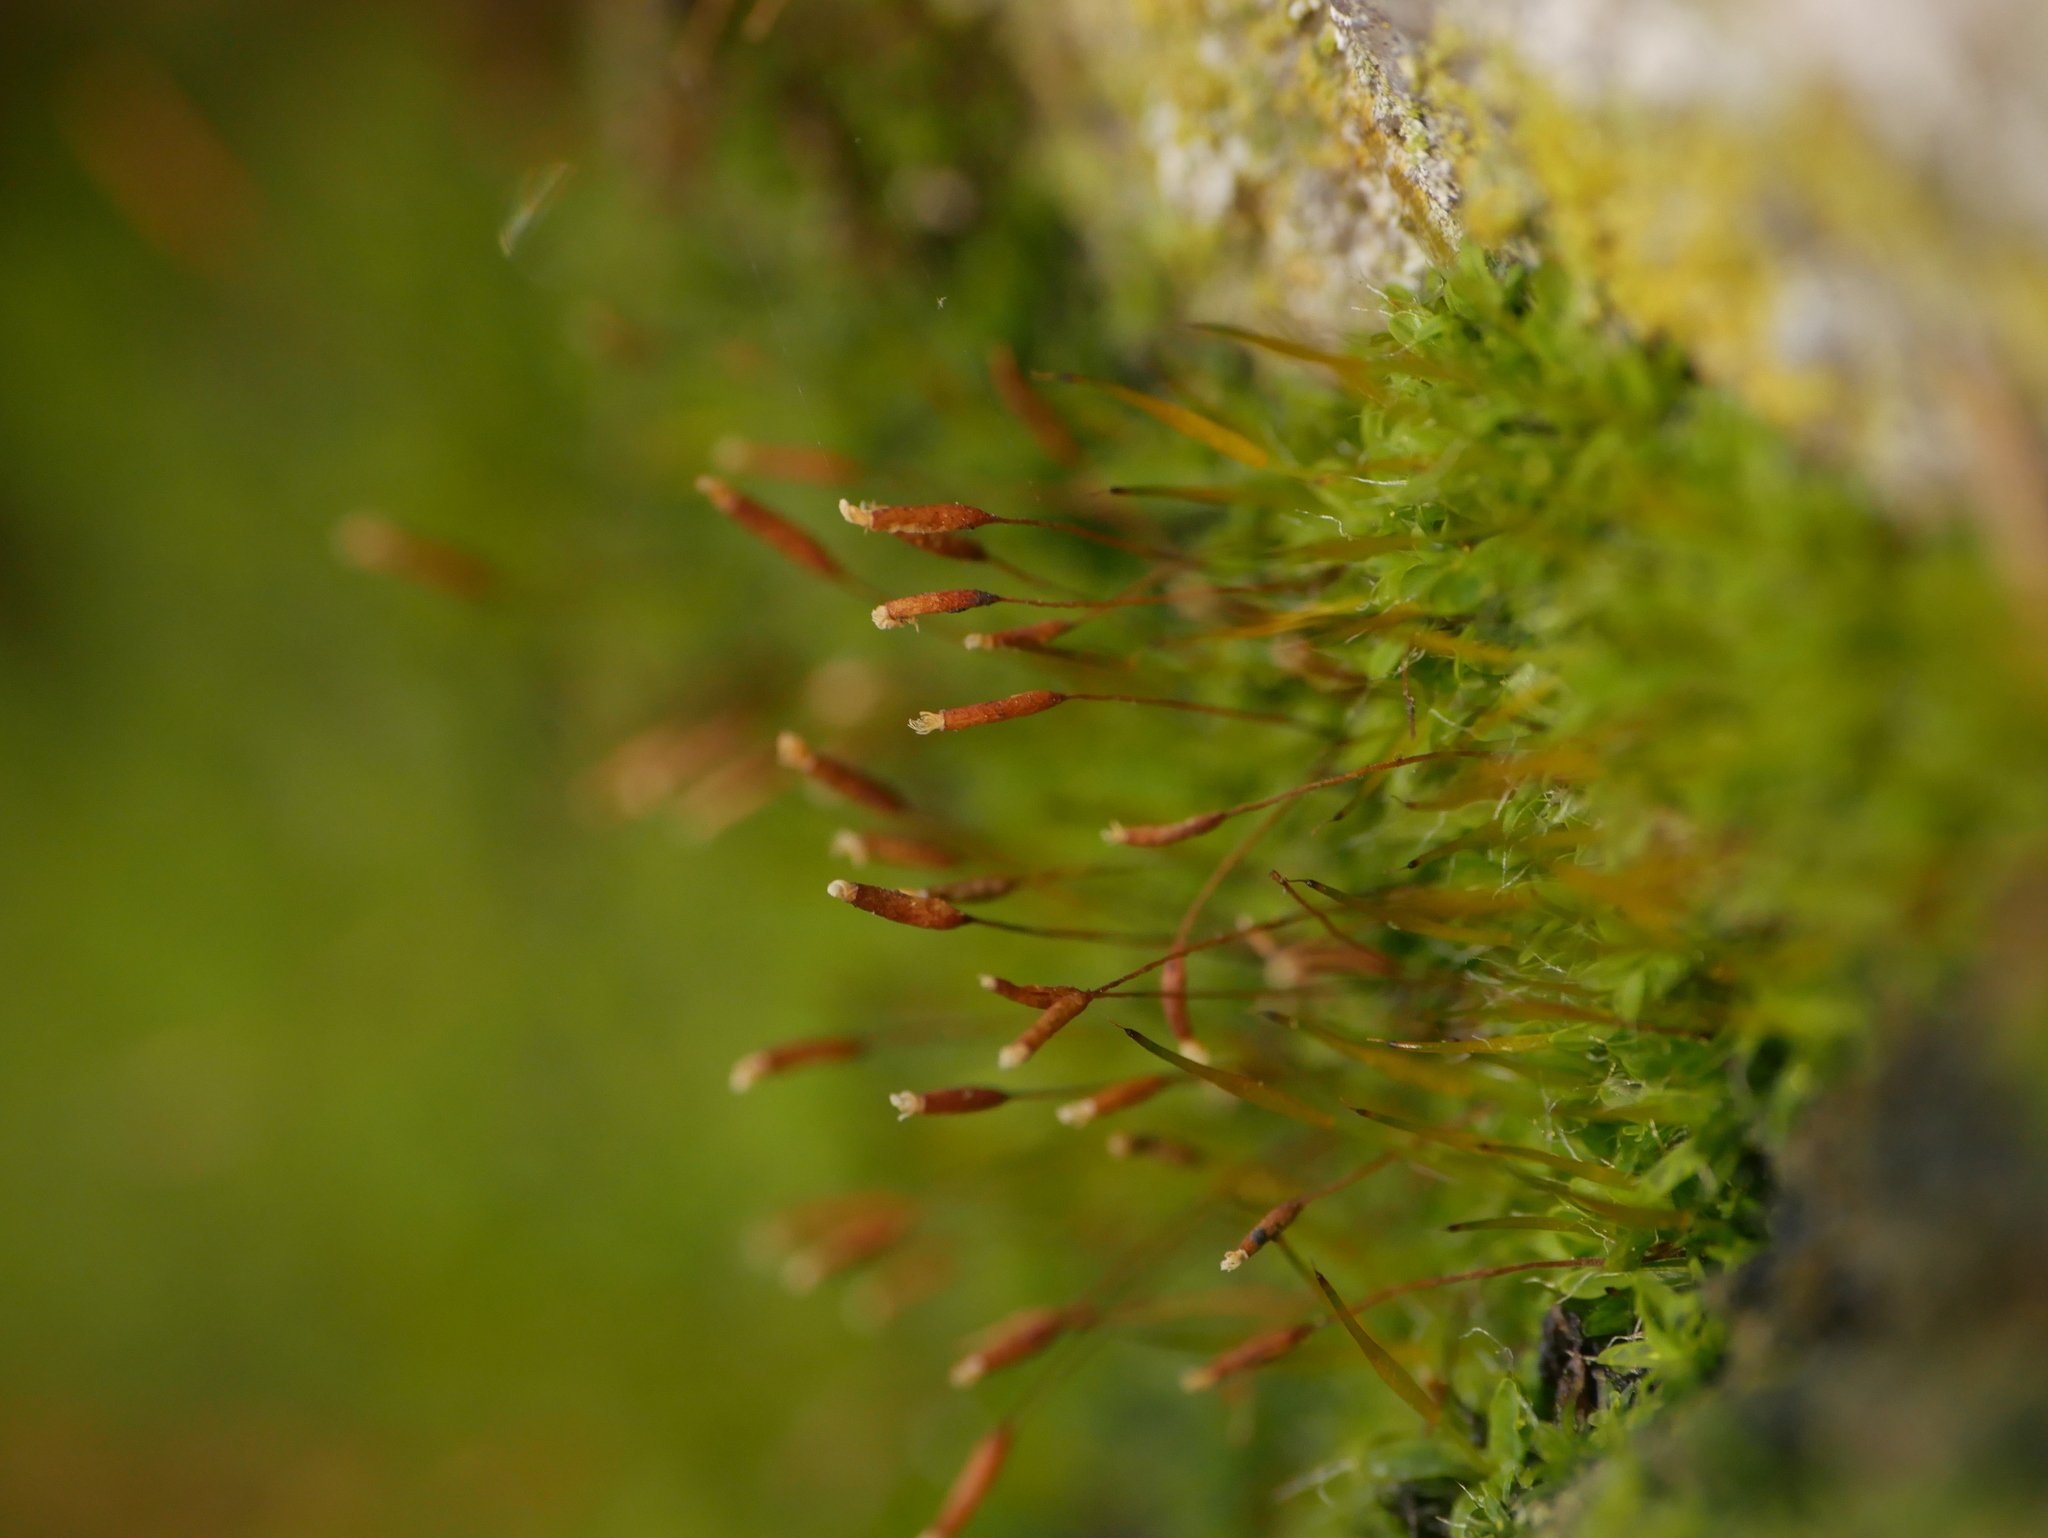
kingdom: Plantae
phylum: Bryophyta
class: Bryopsida
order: Pottiales
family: Pottiaceae
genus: Tortula
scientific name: Tortula muralis
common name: Wall screw-moss
